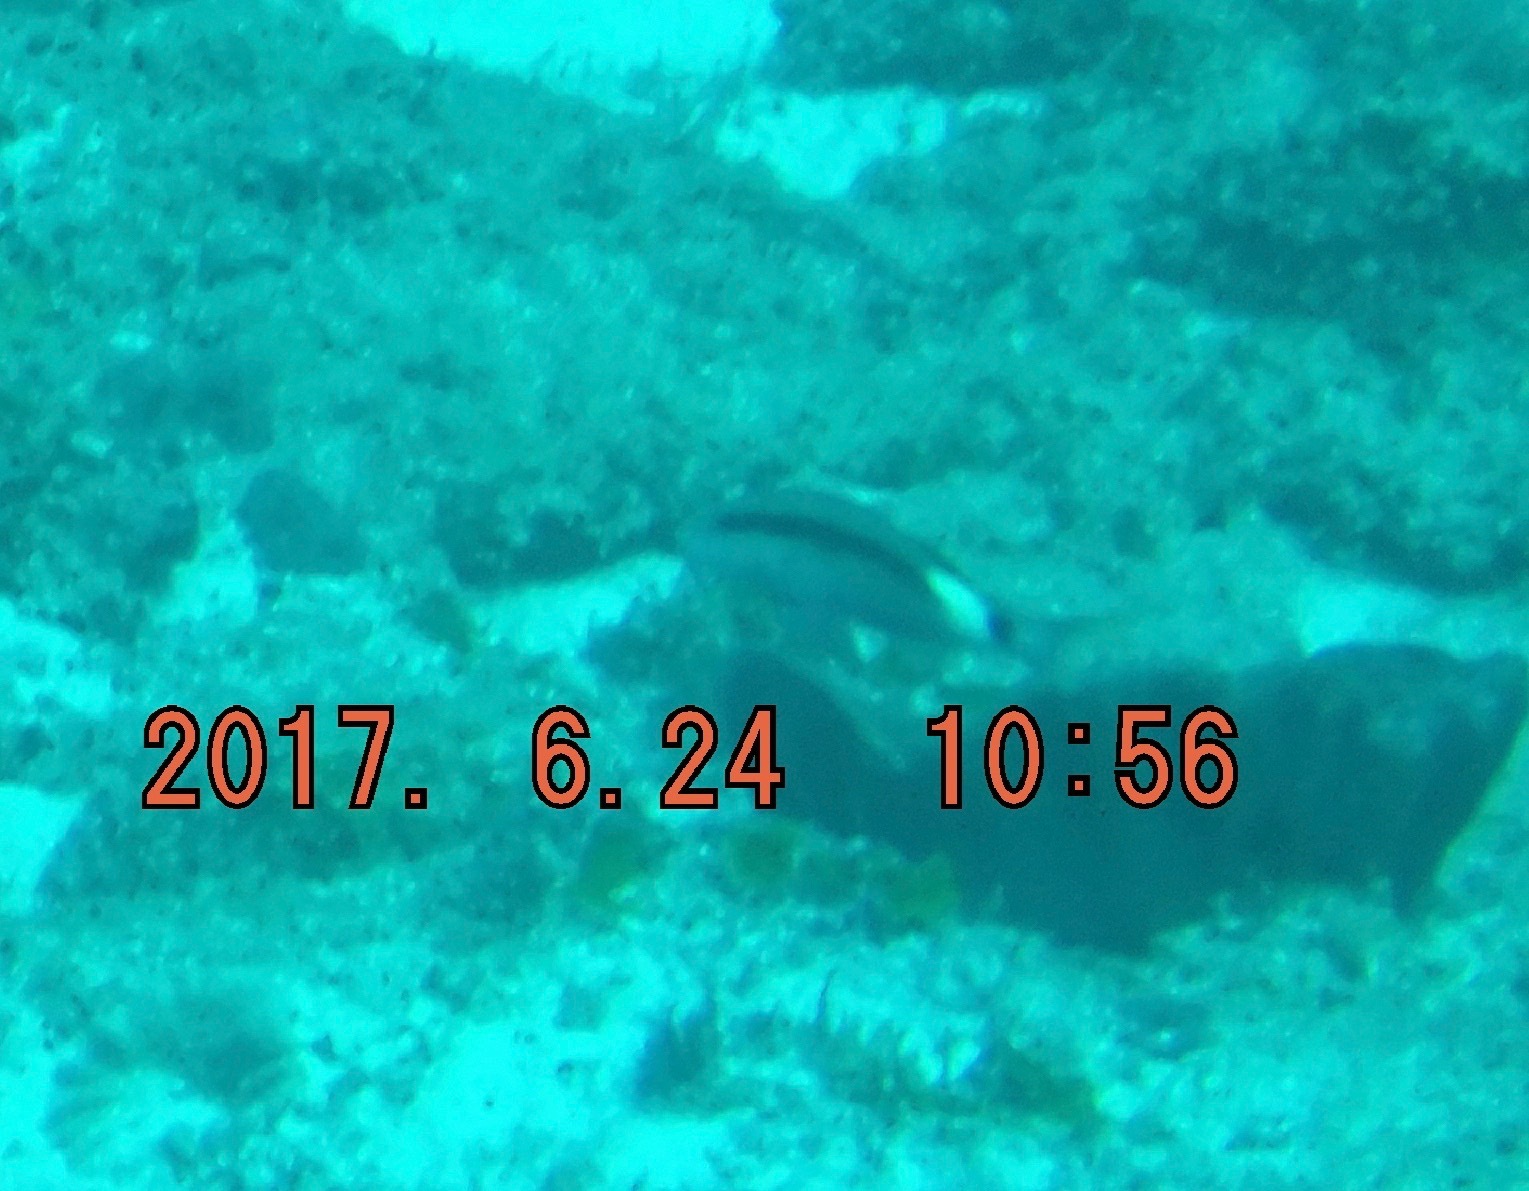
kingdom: Animalia
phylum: Chordata
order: Perciformes
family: Mullidae
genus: Parupeneus
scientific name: Parupeneus macronemus
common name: Long-barbel goatfish
